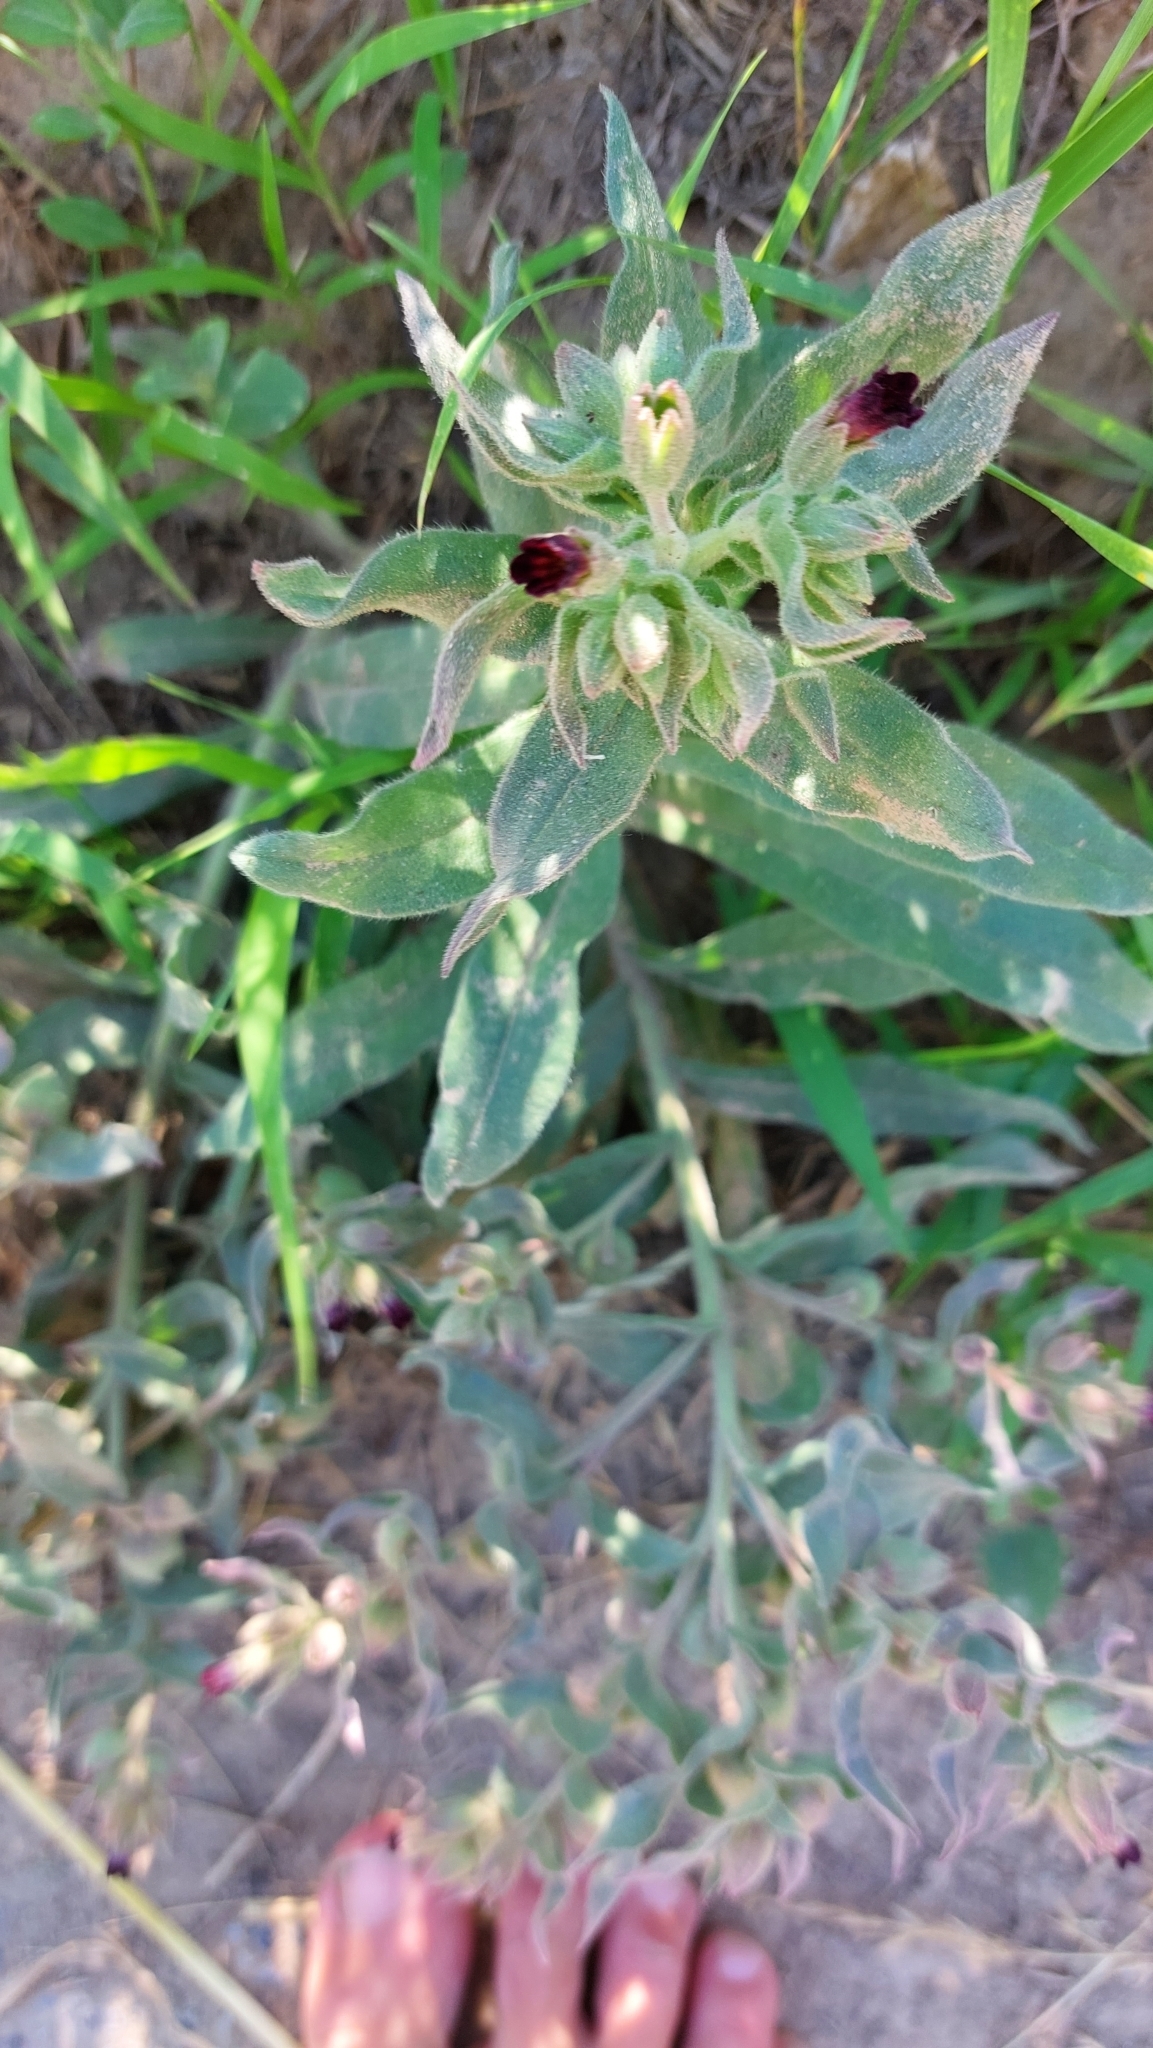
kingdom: Plantae
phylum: Tracheophyta
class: Magnoliopsida
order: Boraginales
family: Boraginaceae
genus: Nonea
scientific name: Nonea pulla
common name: Brown nonea
